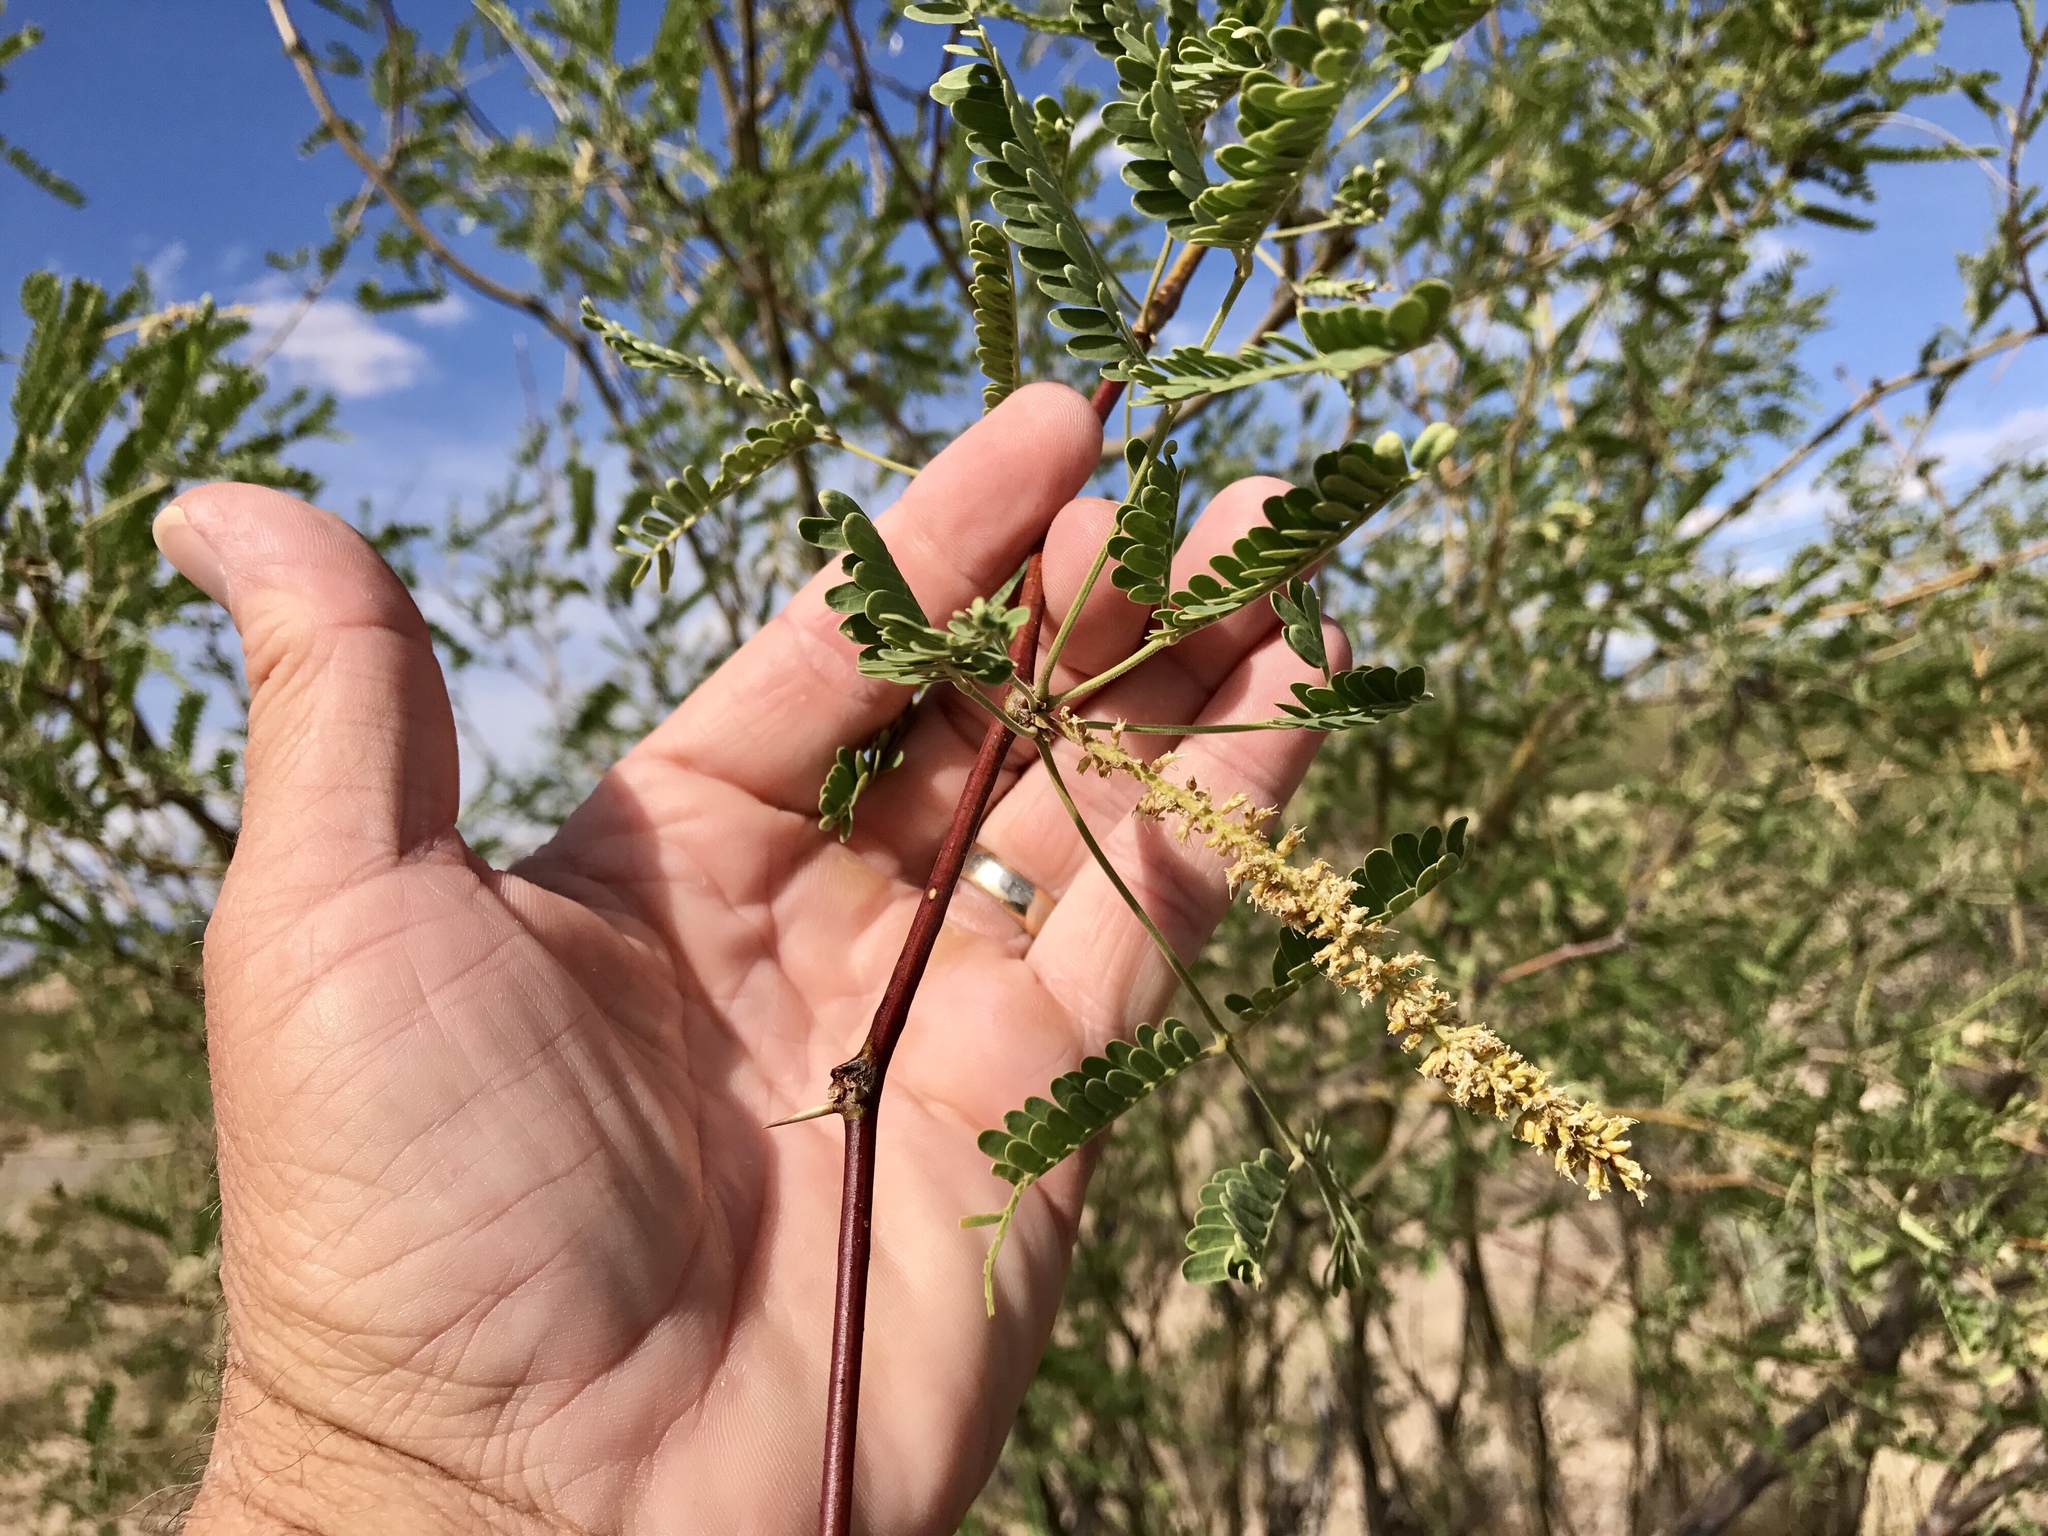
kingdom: Plantae
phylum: Tracheophyta
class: Magnoliopsida
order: Fabales
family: Fabaceae
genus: Prosopis
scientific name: Prosopis velutina
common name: Velvet mesquite
